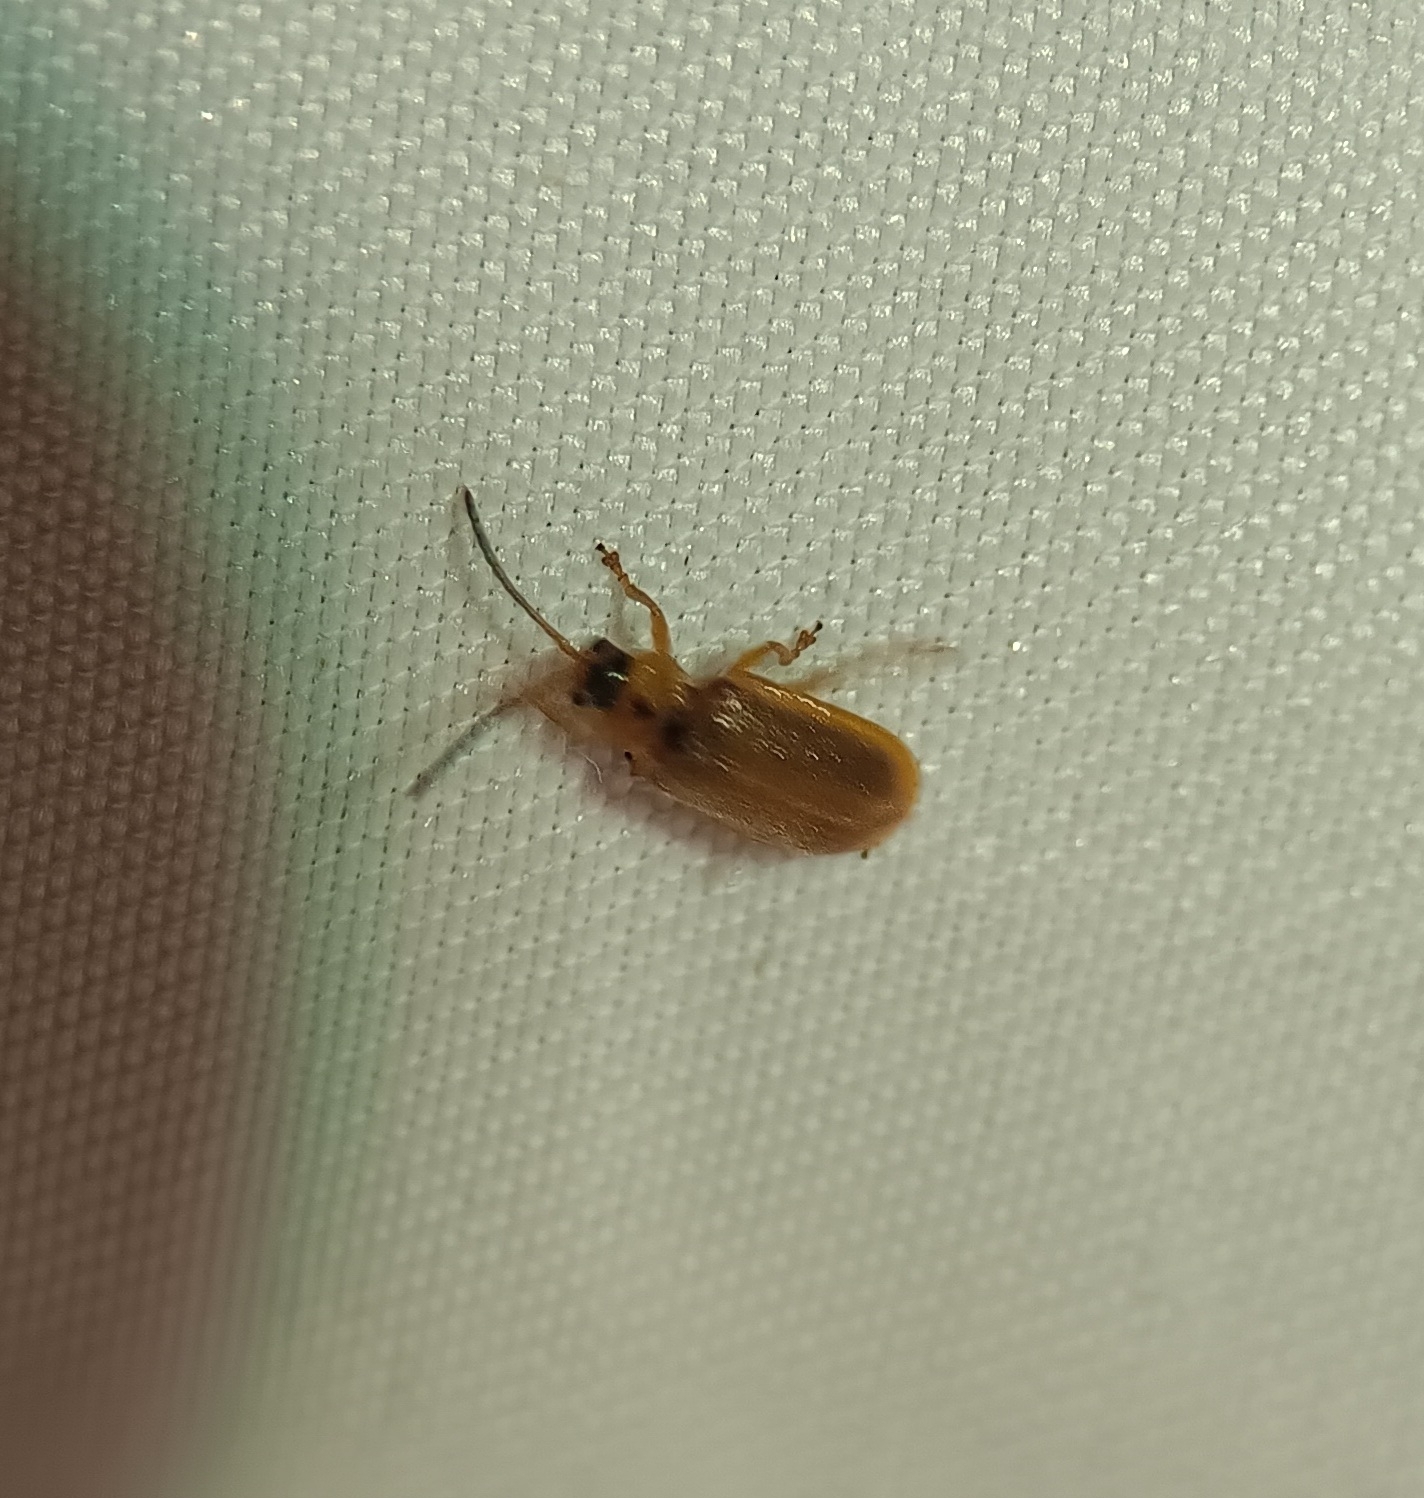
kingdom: Animalia
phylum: Arthropoda
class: Insecta
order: Coleoptera
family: Chrysomelidae
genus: Neogalerucella
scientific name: Neogalerucella calmariensis
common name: Black-margined loosestrife beetle
